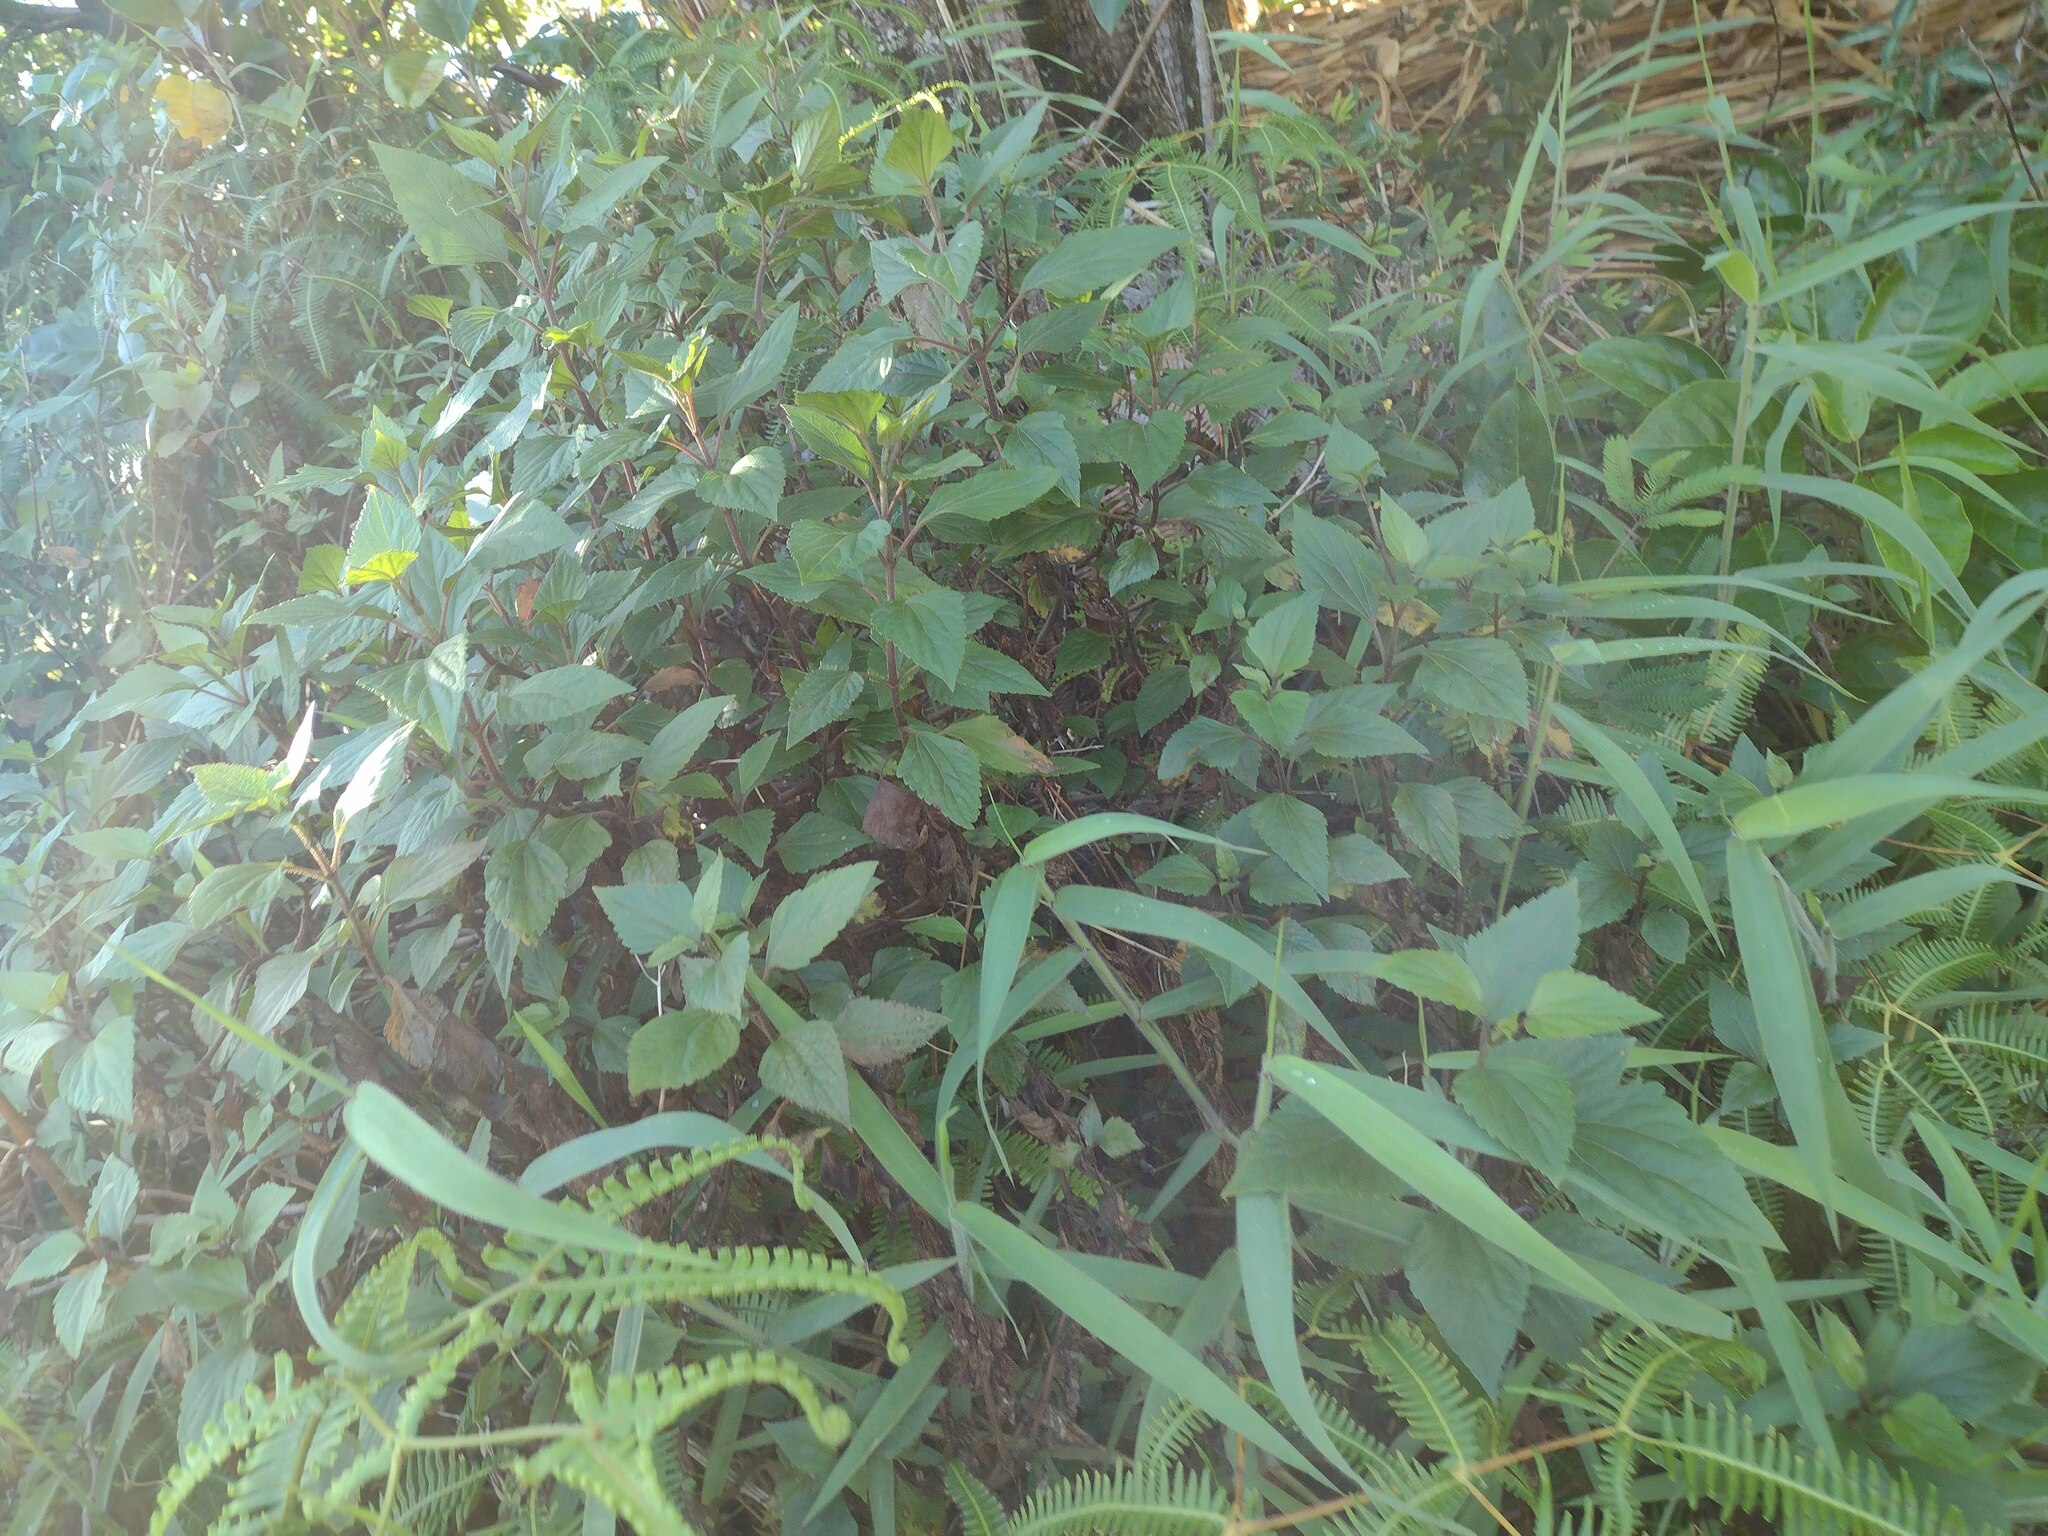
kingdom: Plantae
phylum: Tracheophyta
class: Magnoliopsida
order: Asterales
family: Asteraceae
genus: Ageratina
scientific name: Ageratina adenophora
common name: Sticky snakeroot
